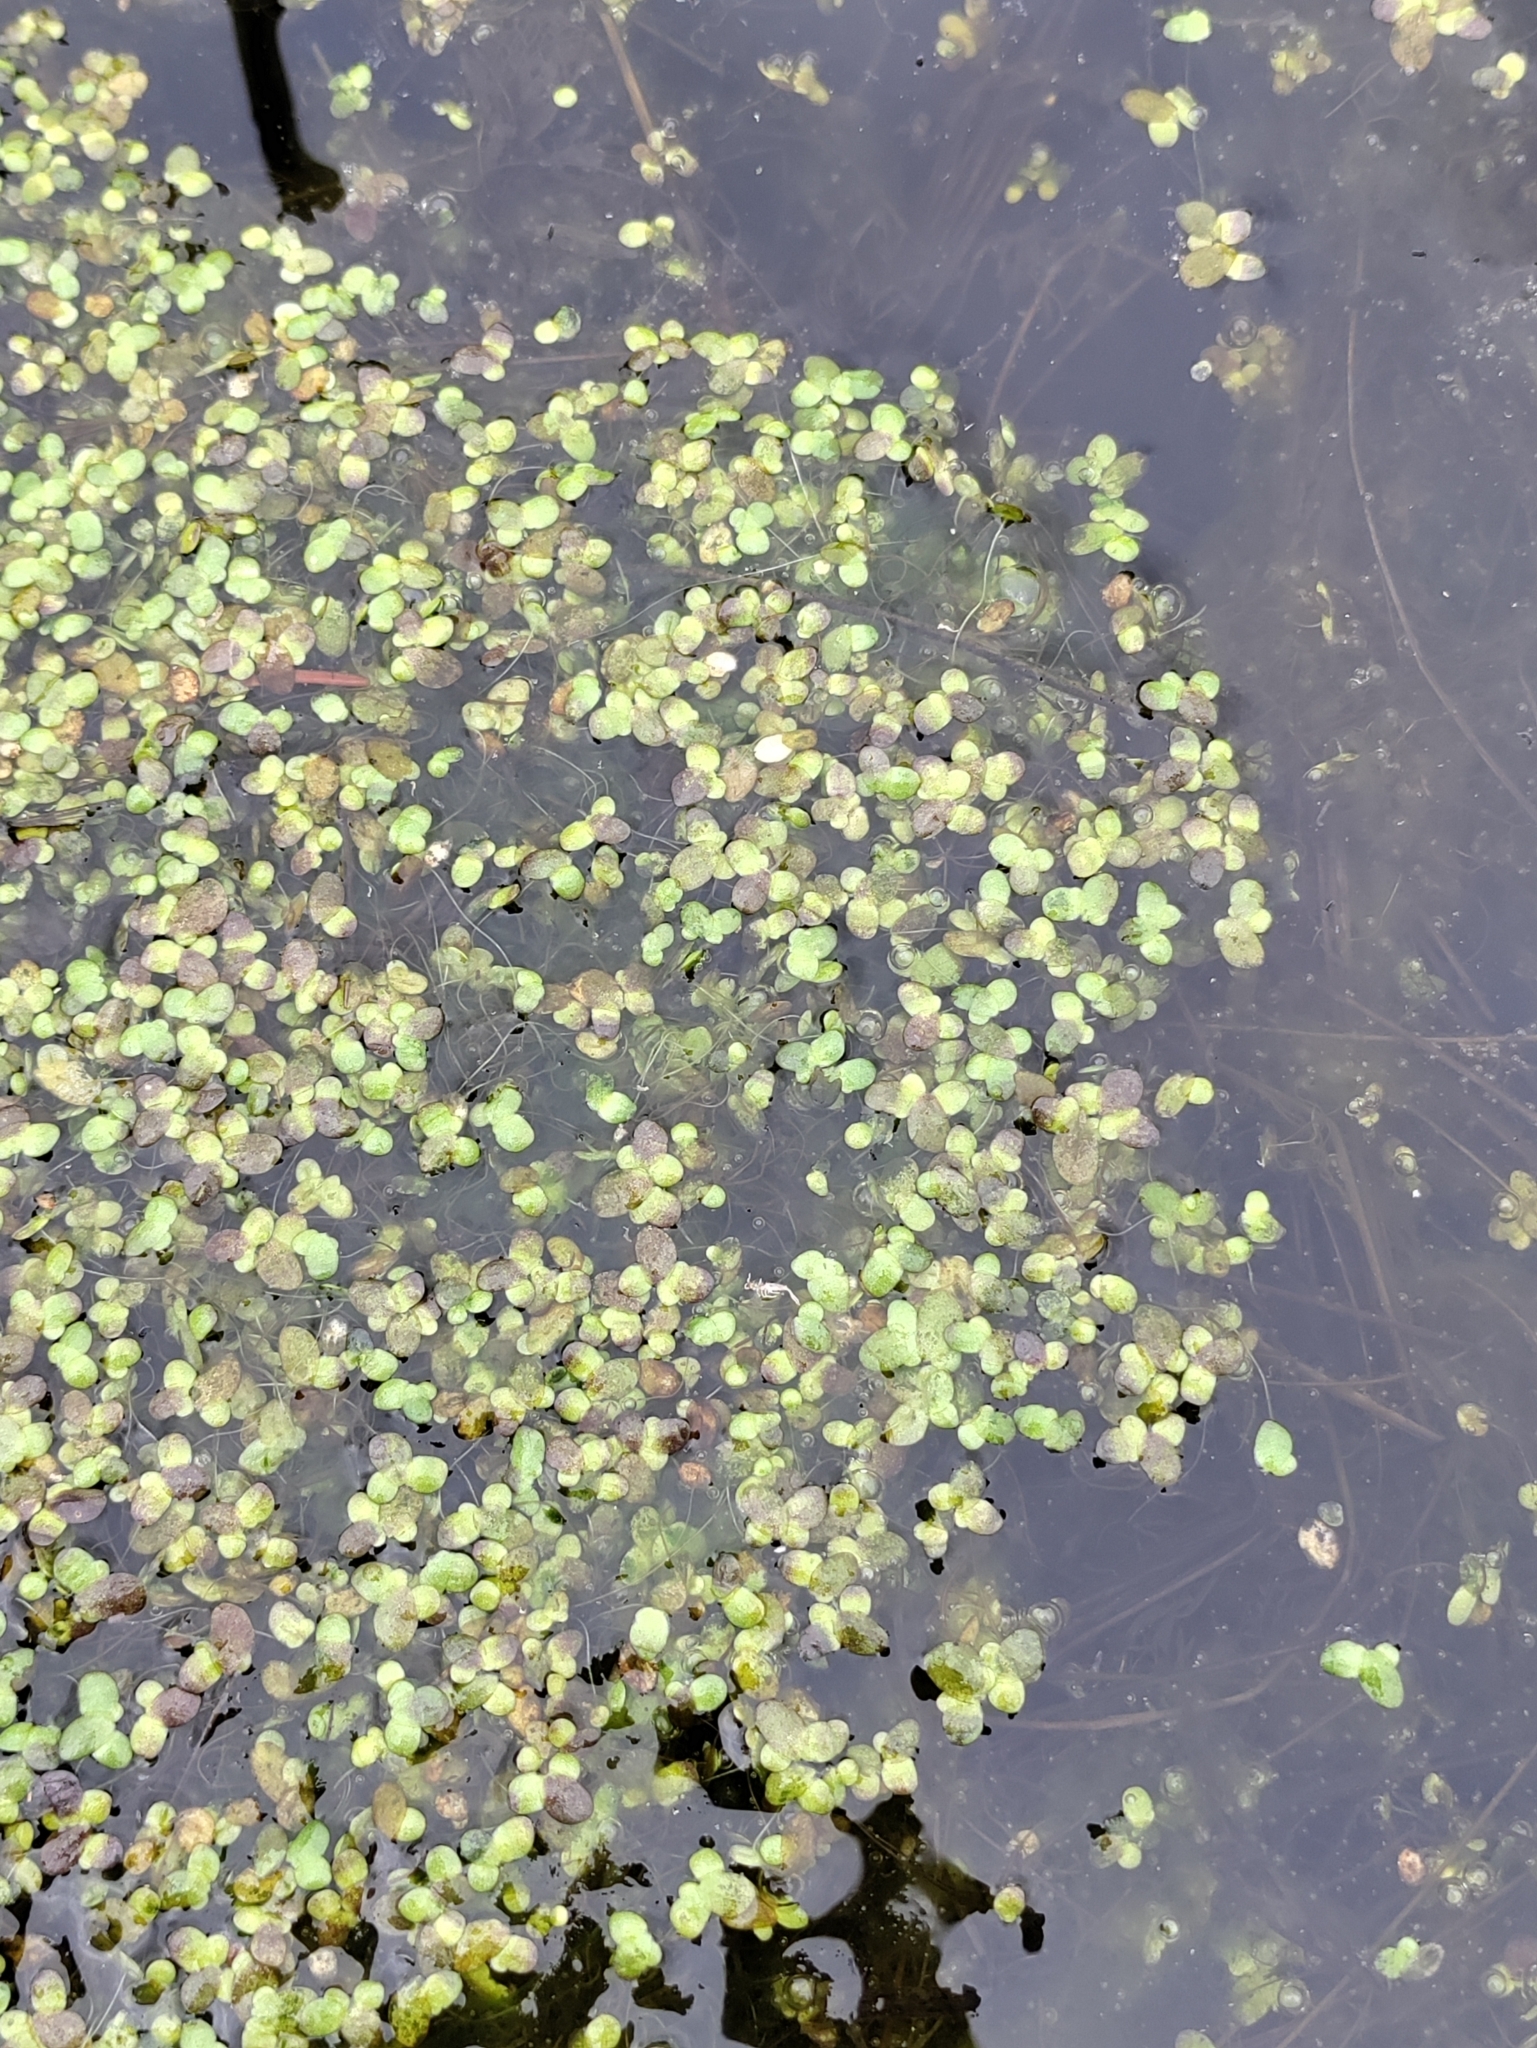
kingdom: Plantae
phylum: Tracheophyta
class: Liliopsida
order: Alismatales
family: Araceae
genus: Lemna
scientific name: Lemna minor
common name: Common duckweed
